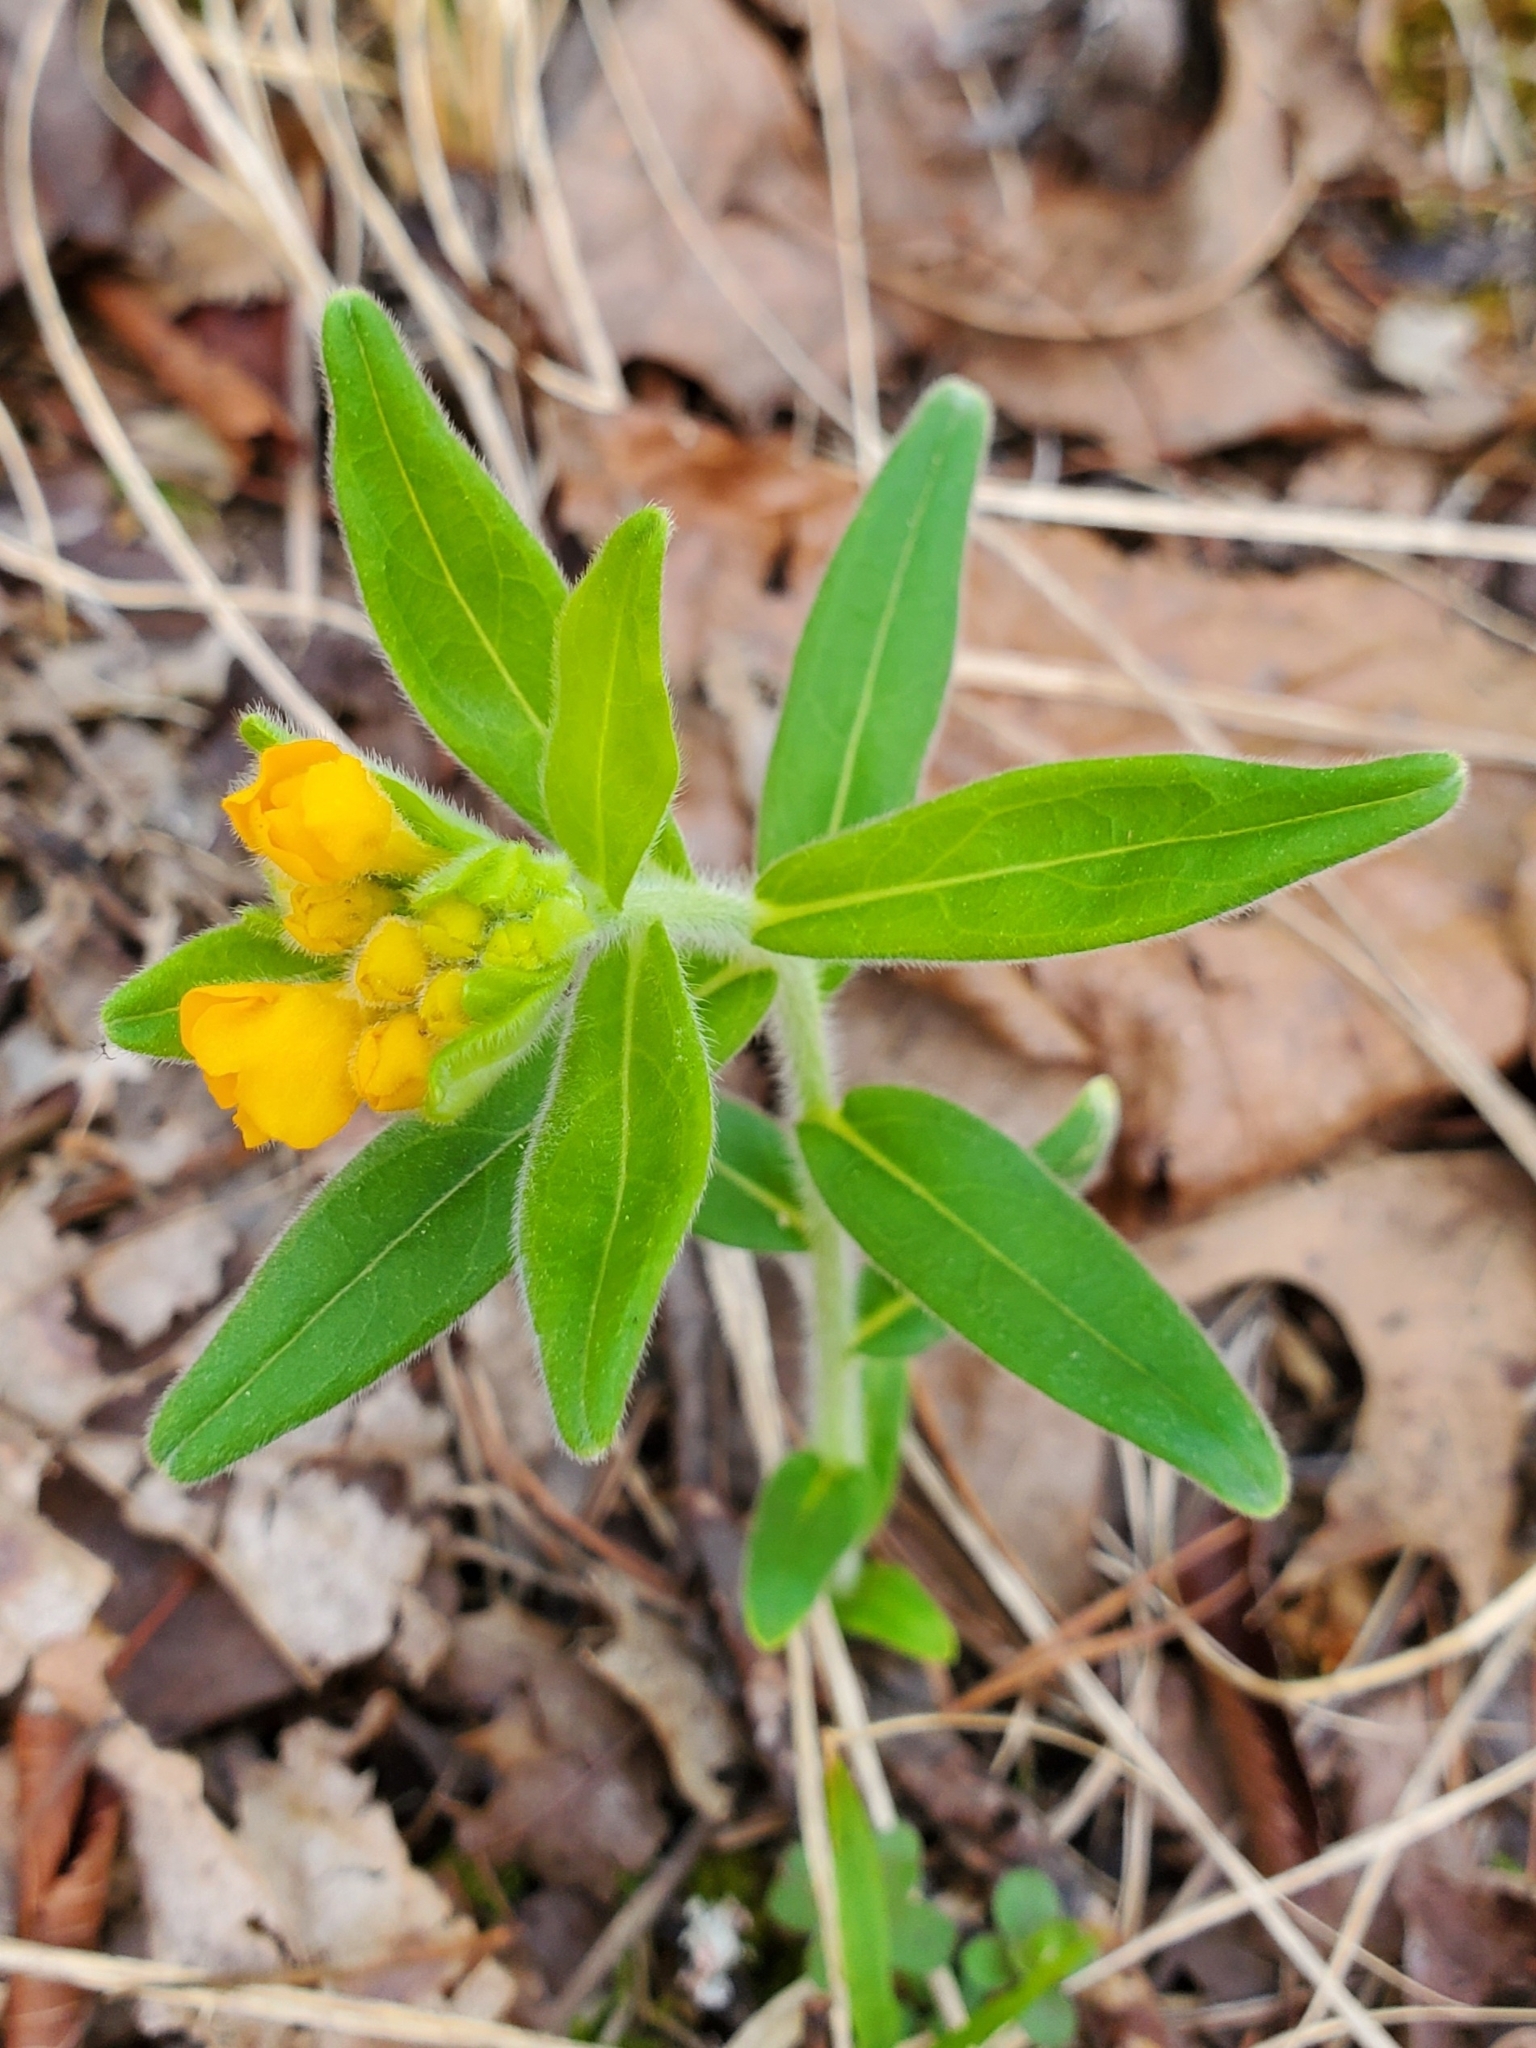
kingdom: Plantae
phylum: Tracheophyta
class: Magnoliopsida
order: Boraginales
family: Boraginaceae
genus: Lithospermum
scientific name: Lithospermum canescens
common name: Hoary puccoon
